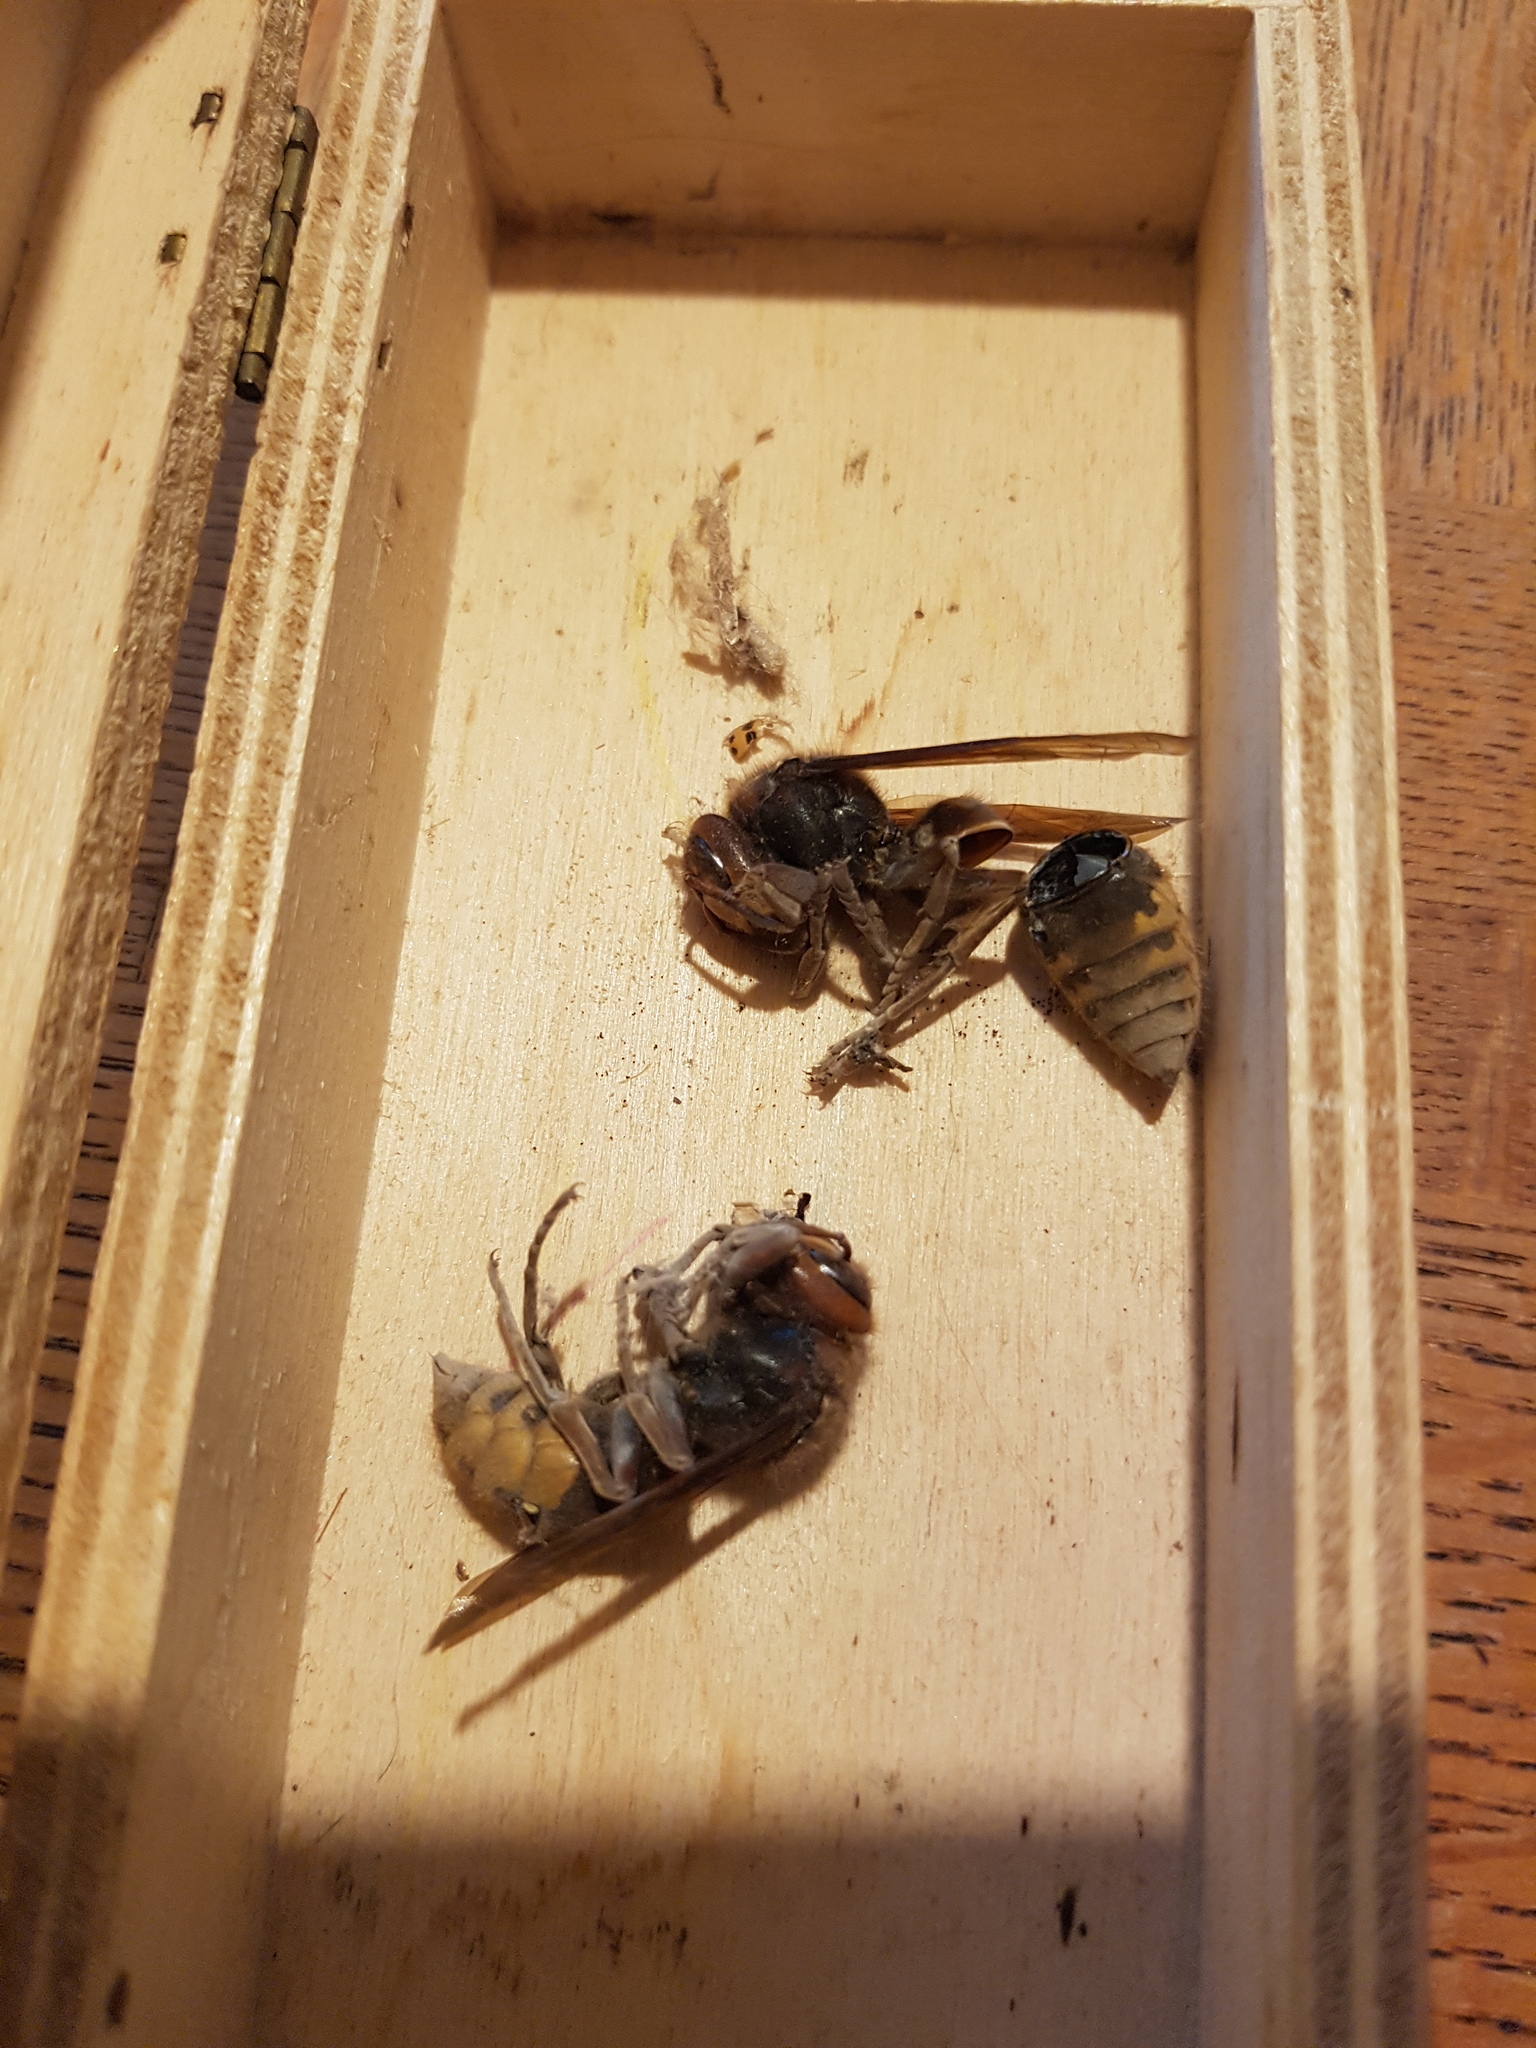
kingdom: Animalia
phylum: Arthropoda
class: Insecta
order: Hymenoptera
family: Vespidae
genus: Vespa
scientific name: Vespa crabro
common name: Hornet
